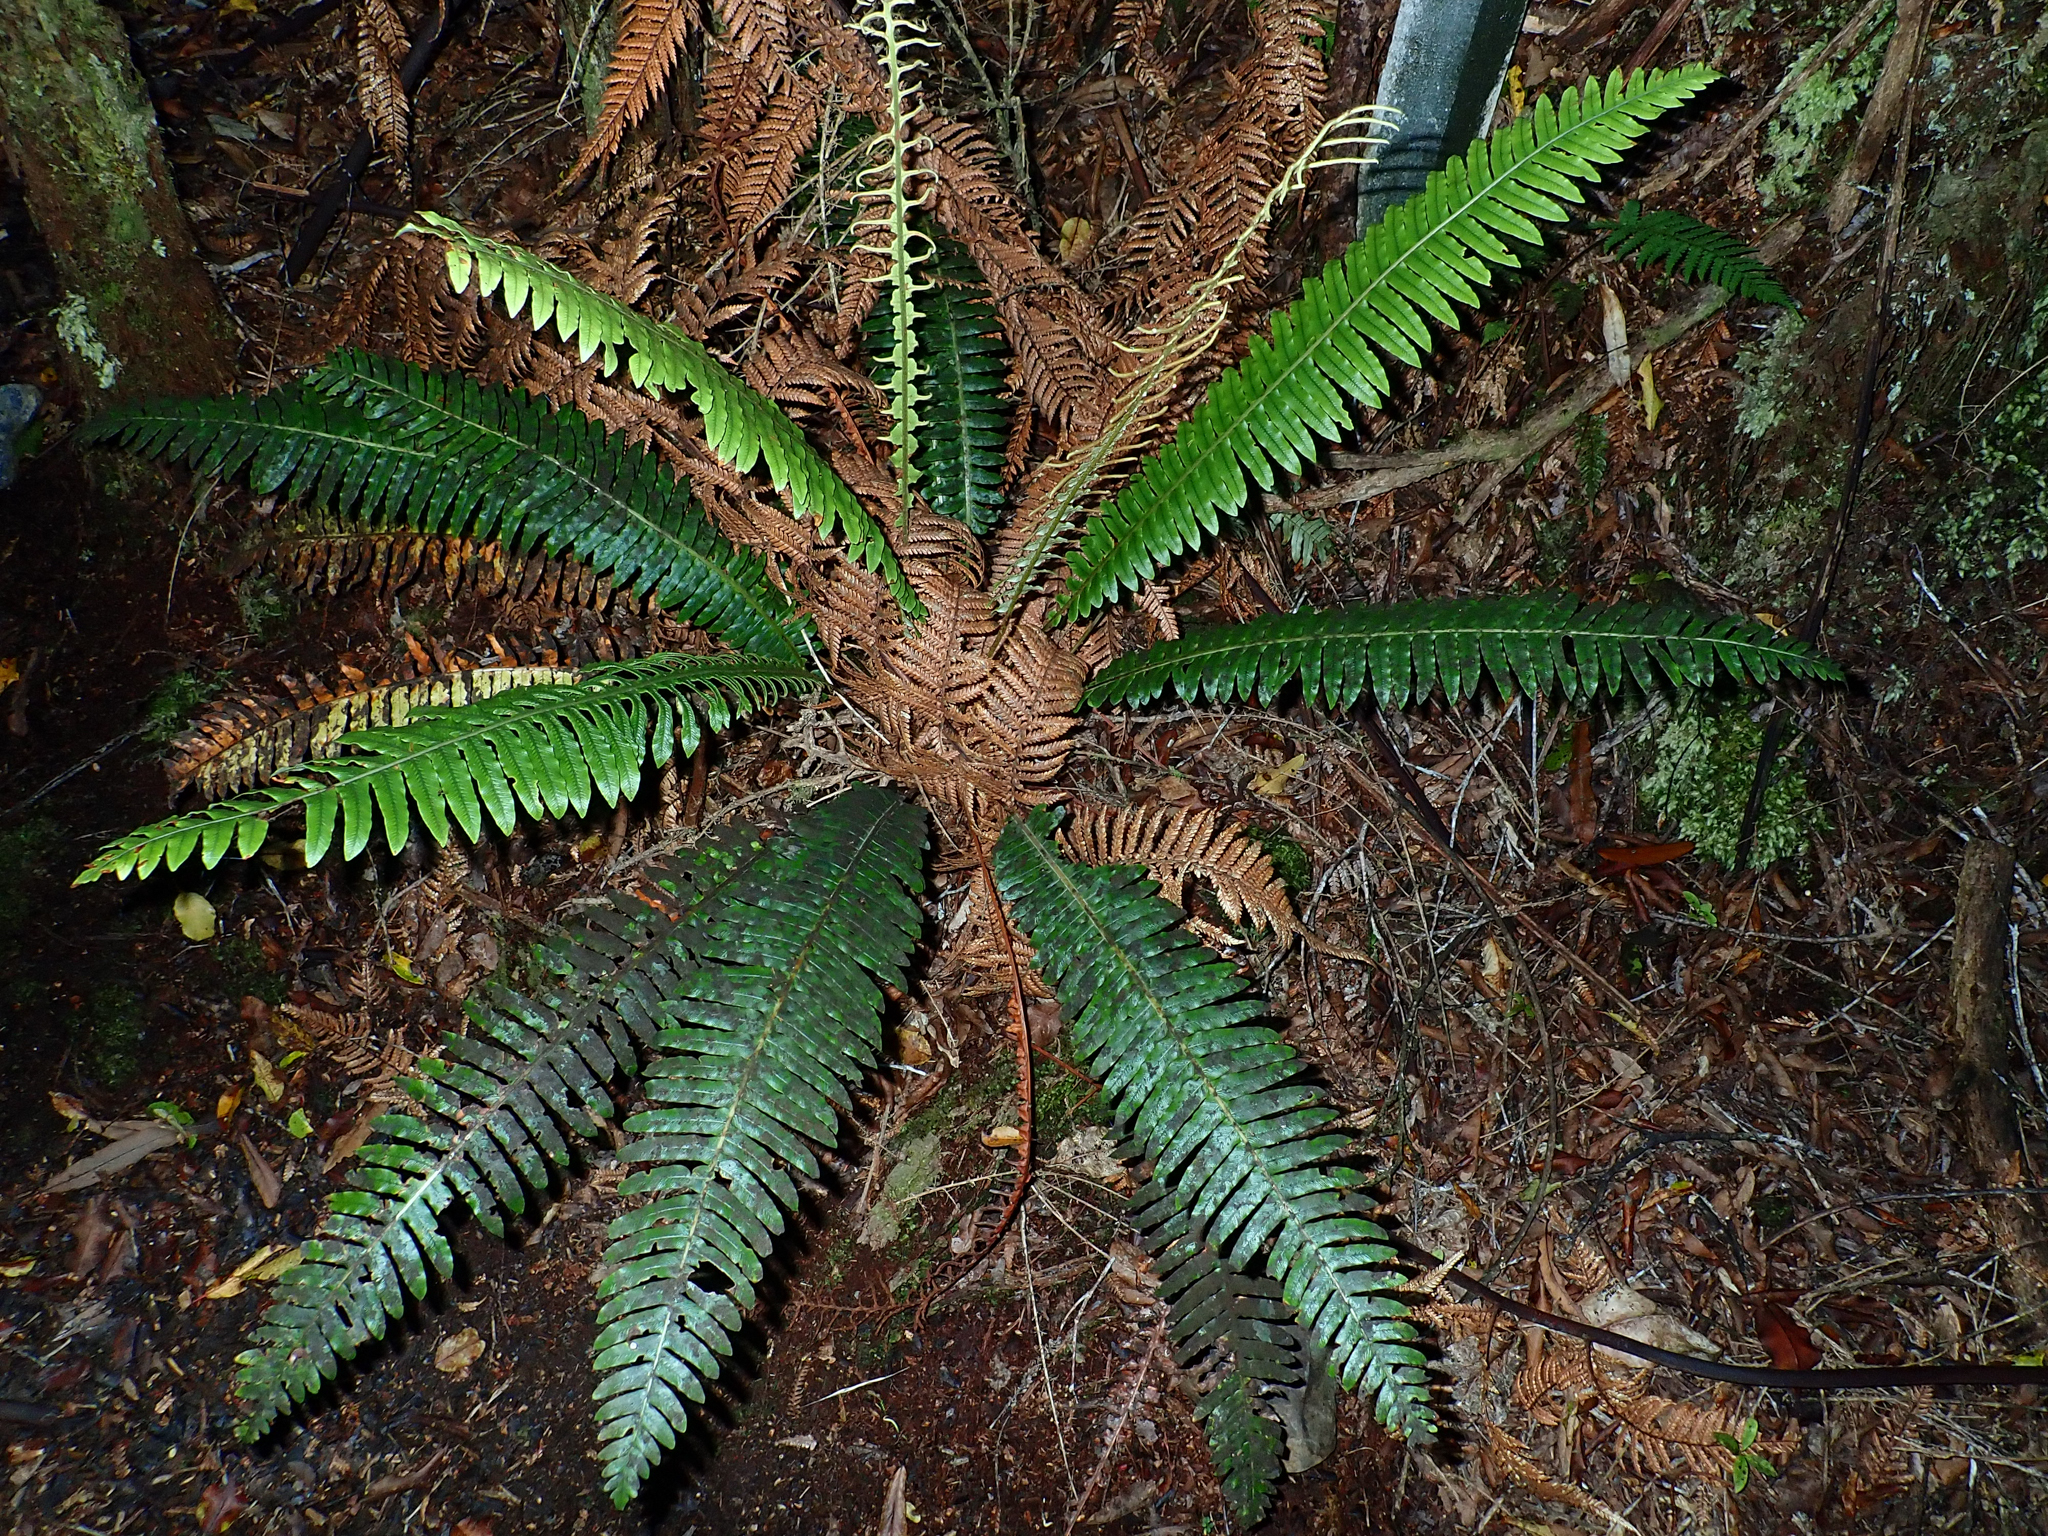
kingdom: Plantae
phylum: Tracheophyta
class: Polypodiopsida
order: Polypodiales
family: Blechnaceae
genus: Lomaria
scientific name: Lomaria discolor
